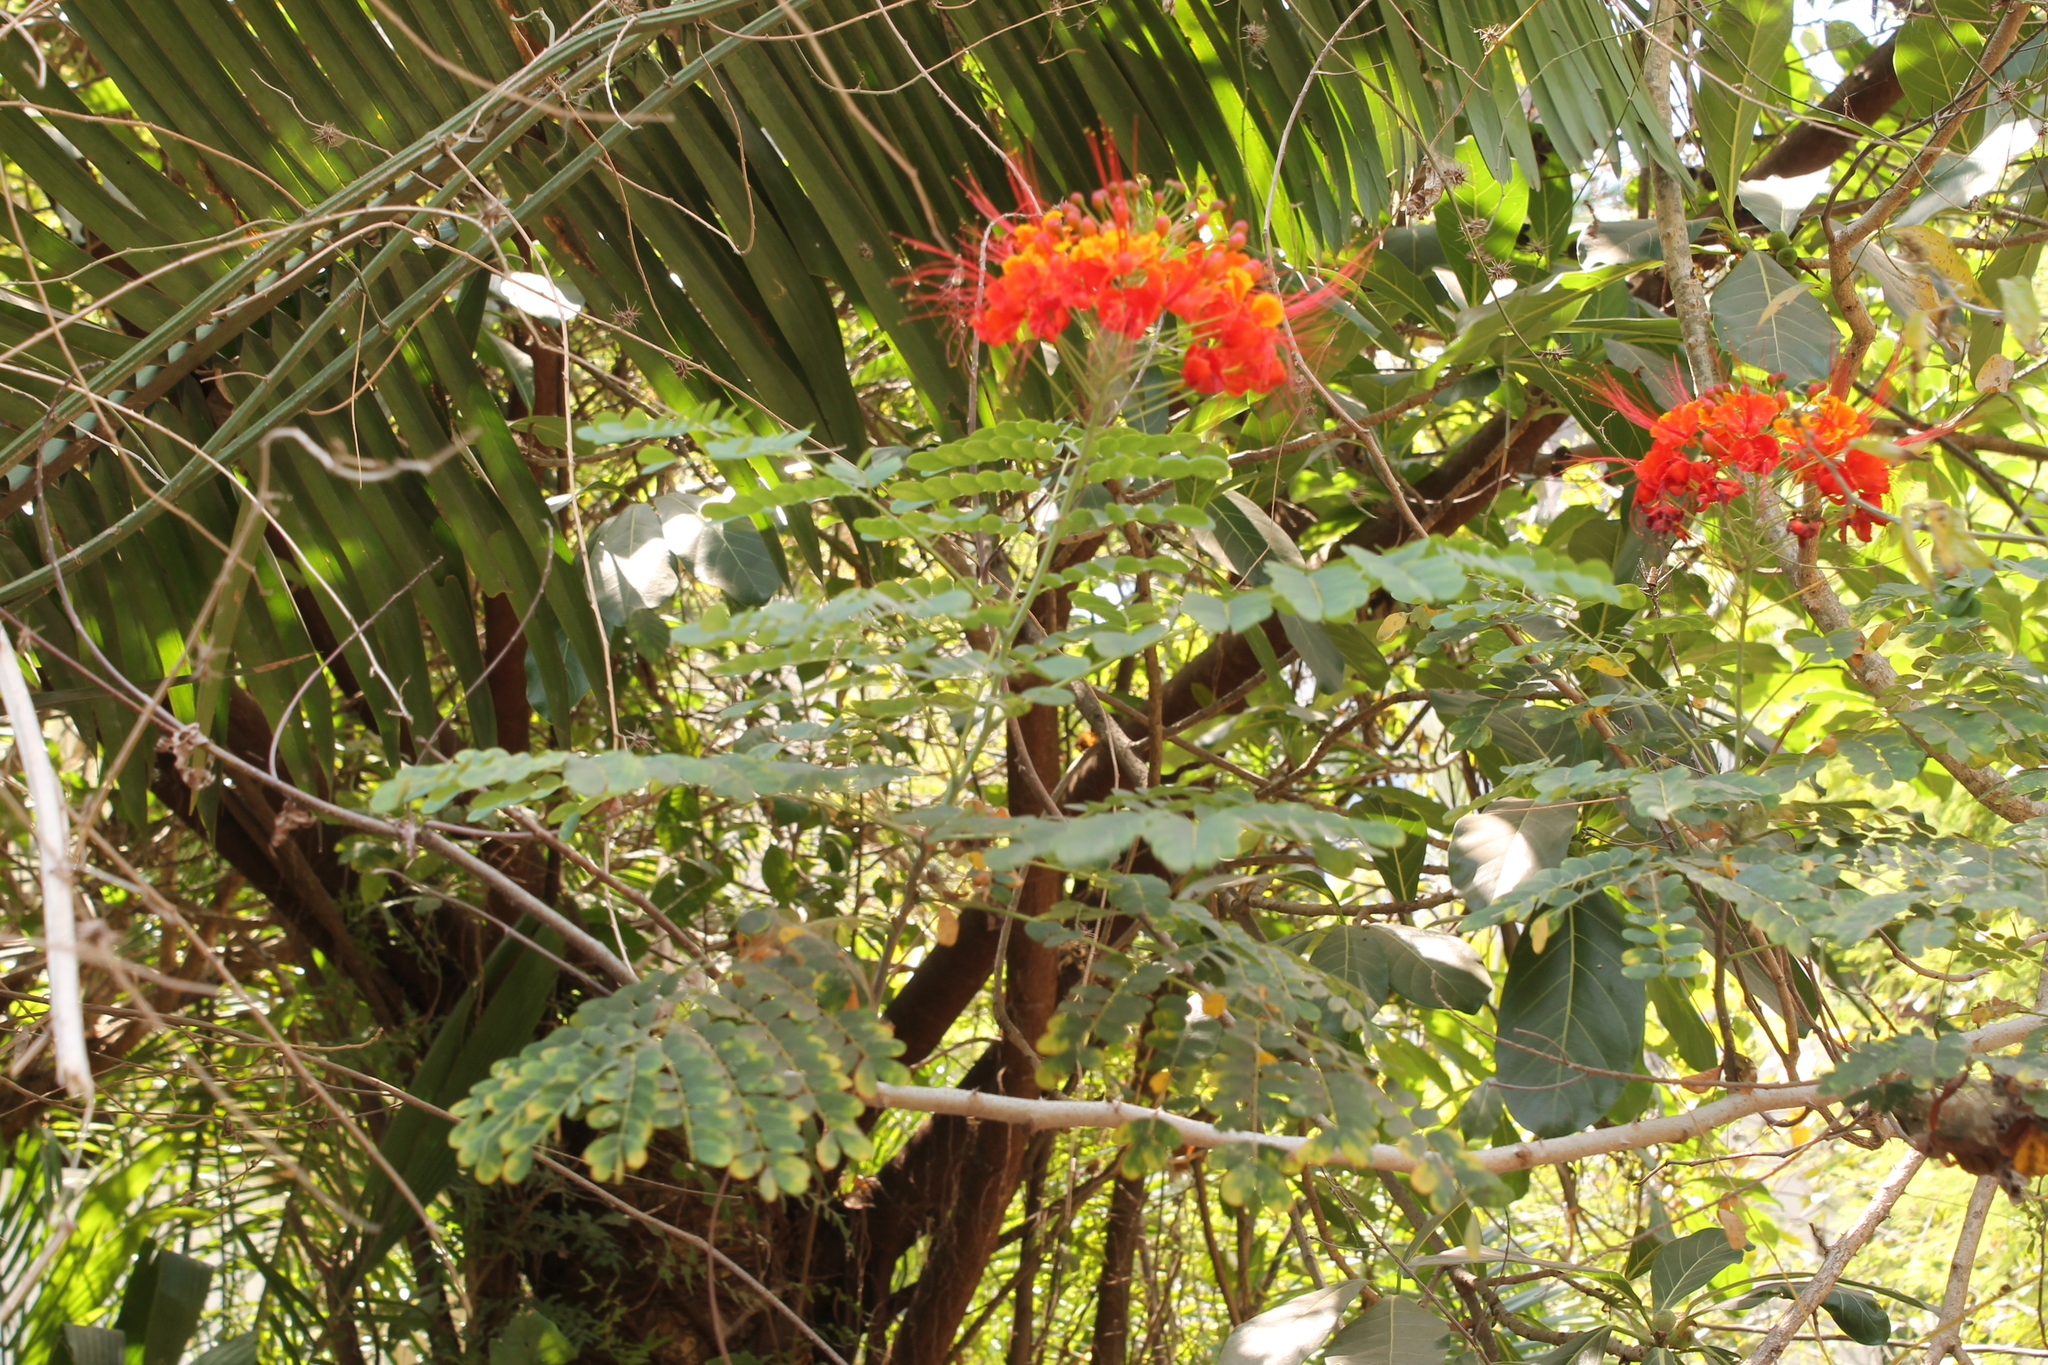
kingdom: Plantae
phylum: Tracheophyta
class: Magnoliopsida
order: Fabales
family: Fabaceae
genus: Caesalpinia
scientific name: Caesalpinia pulcherrima
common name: Pride-of-barbados
